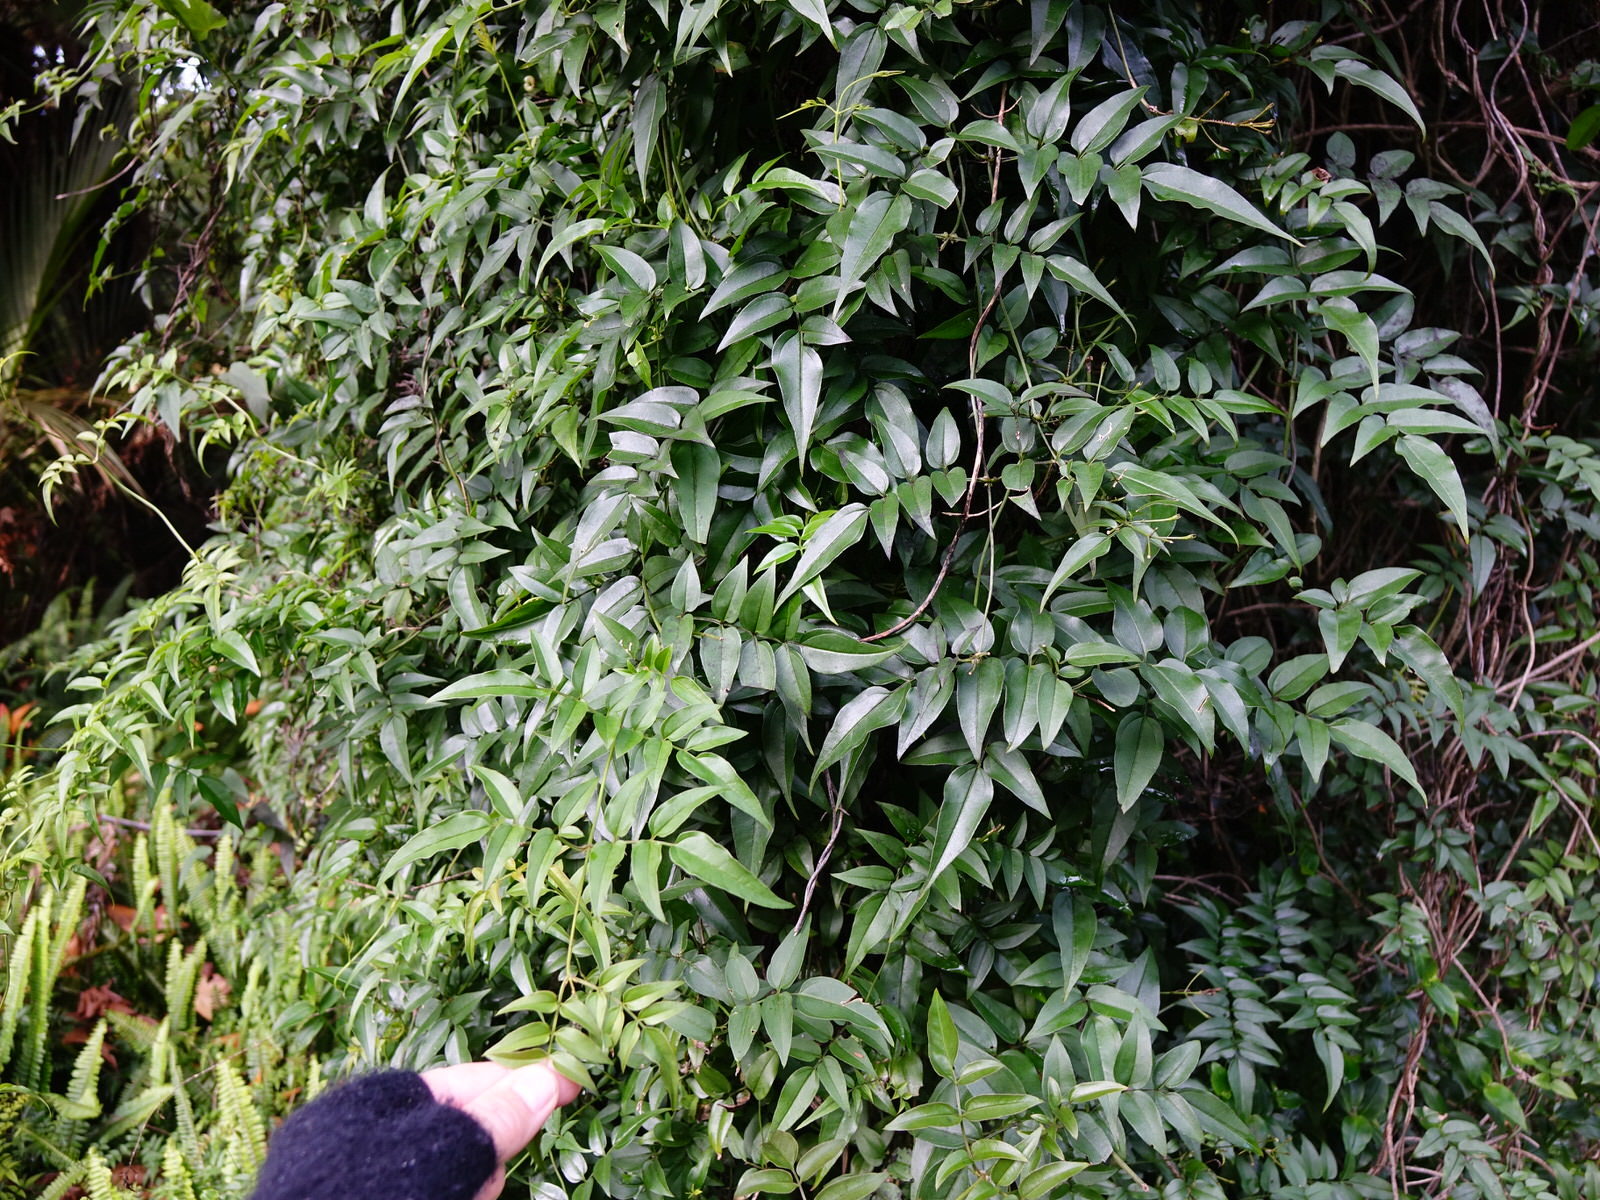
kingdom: Plantae
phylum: Tracheophyta
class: Magnoliopsida
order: Lamiales
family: Oleaceae
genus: Jasminum
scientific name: Jasminum polyanthum
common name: Pink jasmine
